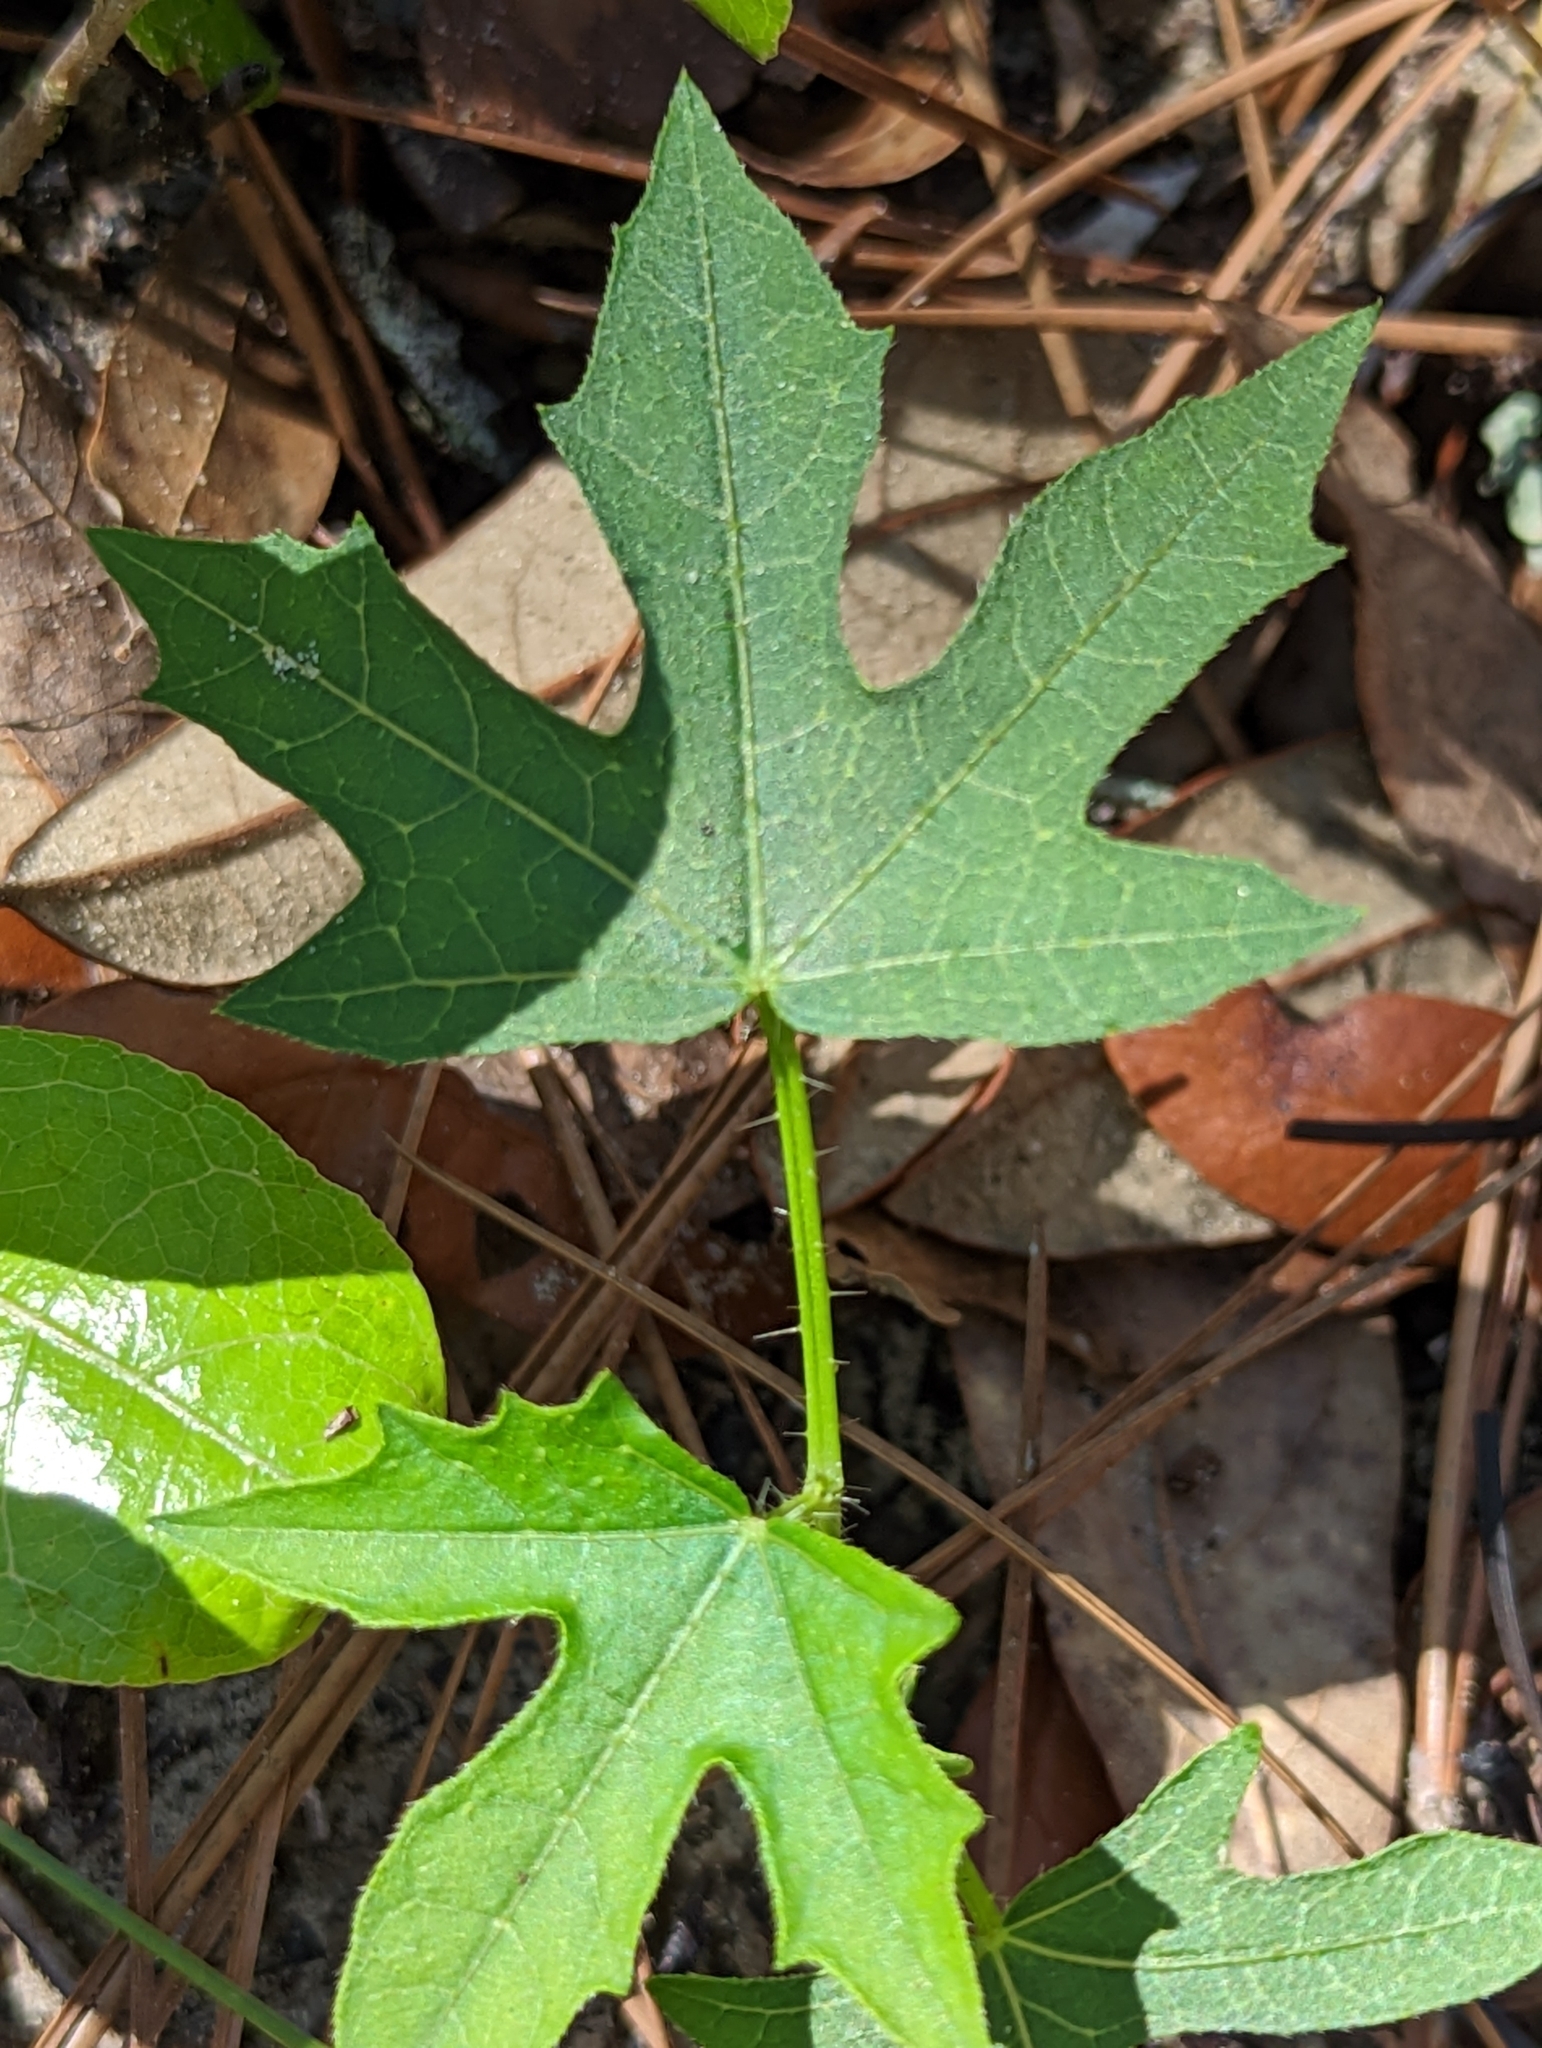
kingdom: Plantae
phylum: Tracheophyta
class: Magnoliopsida
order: Malpighiales
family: Euphorbiaceae
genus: Cnidoscolus
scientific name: Cnidoscolus stimulosus
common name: Bull-nettle
